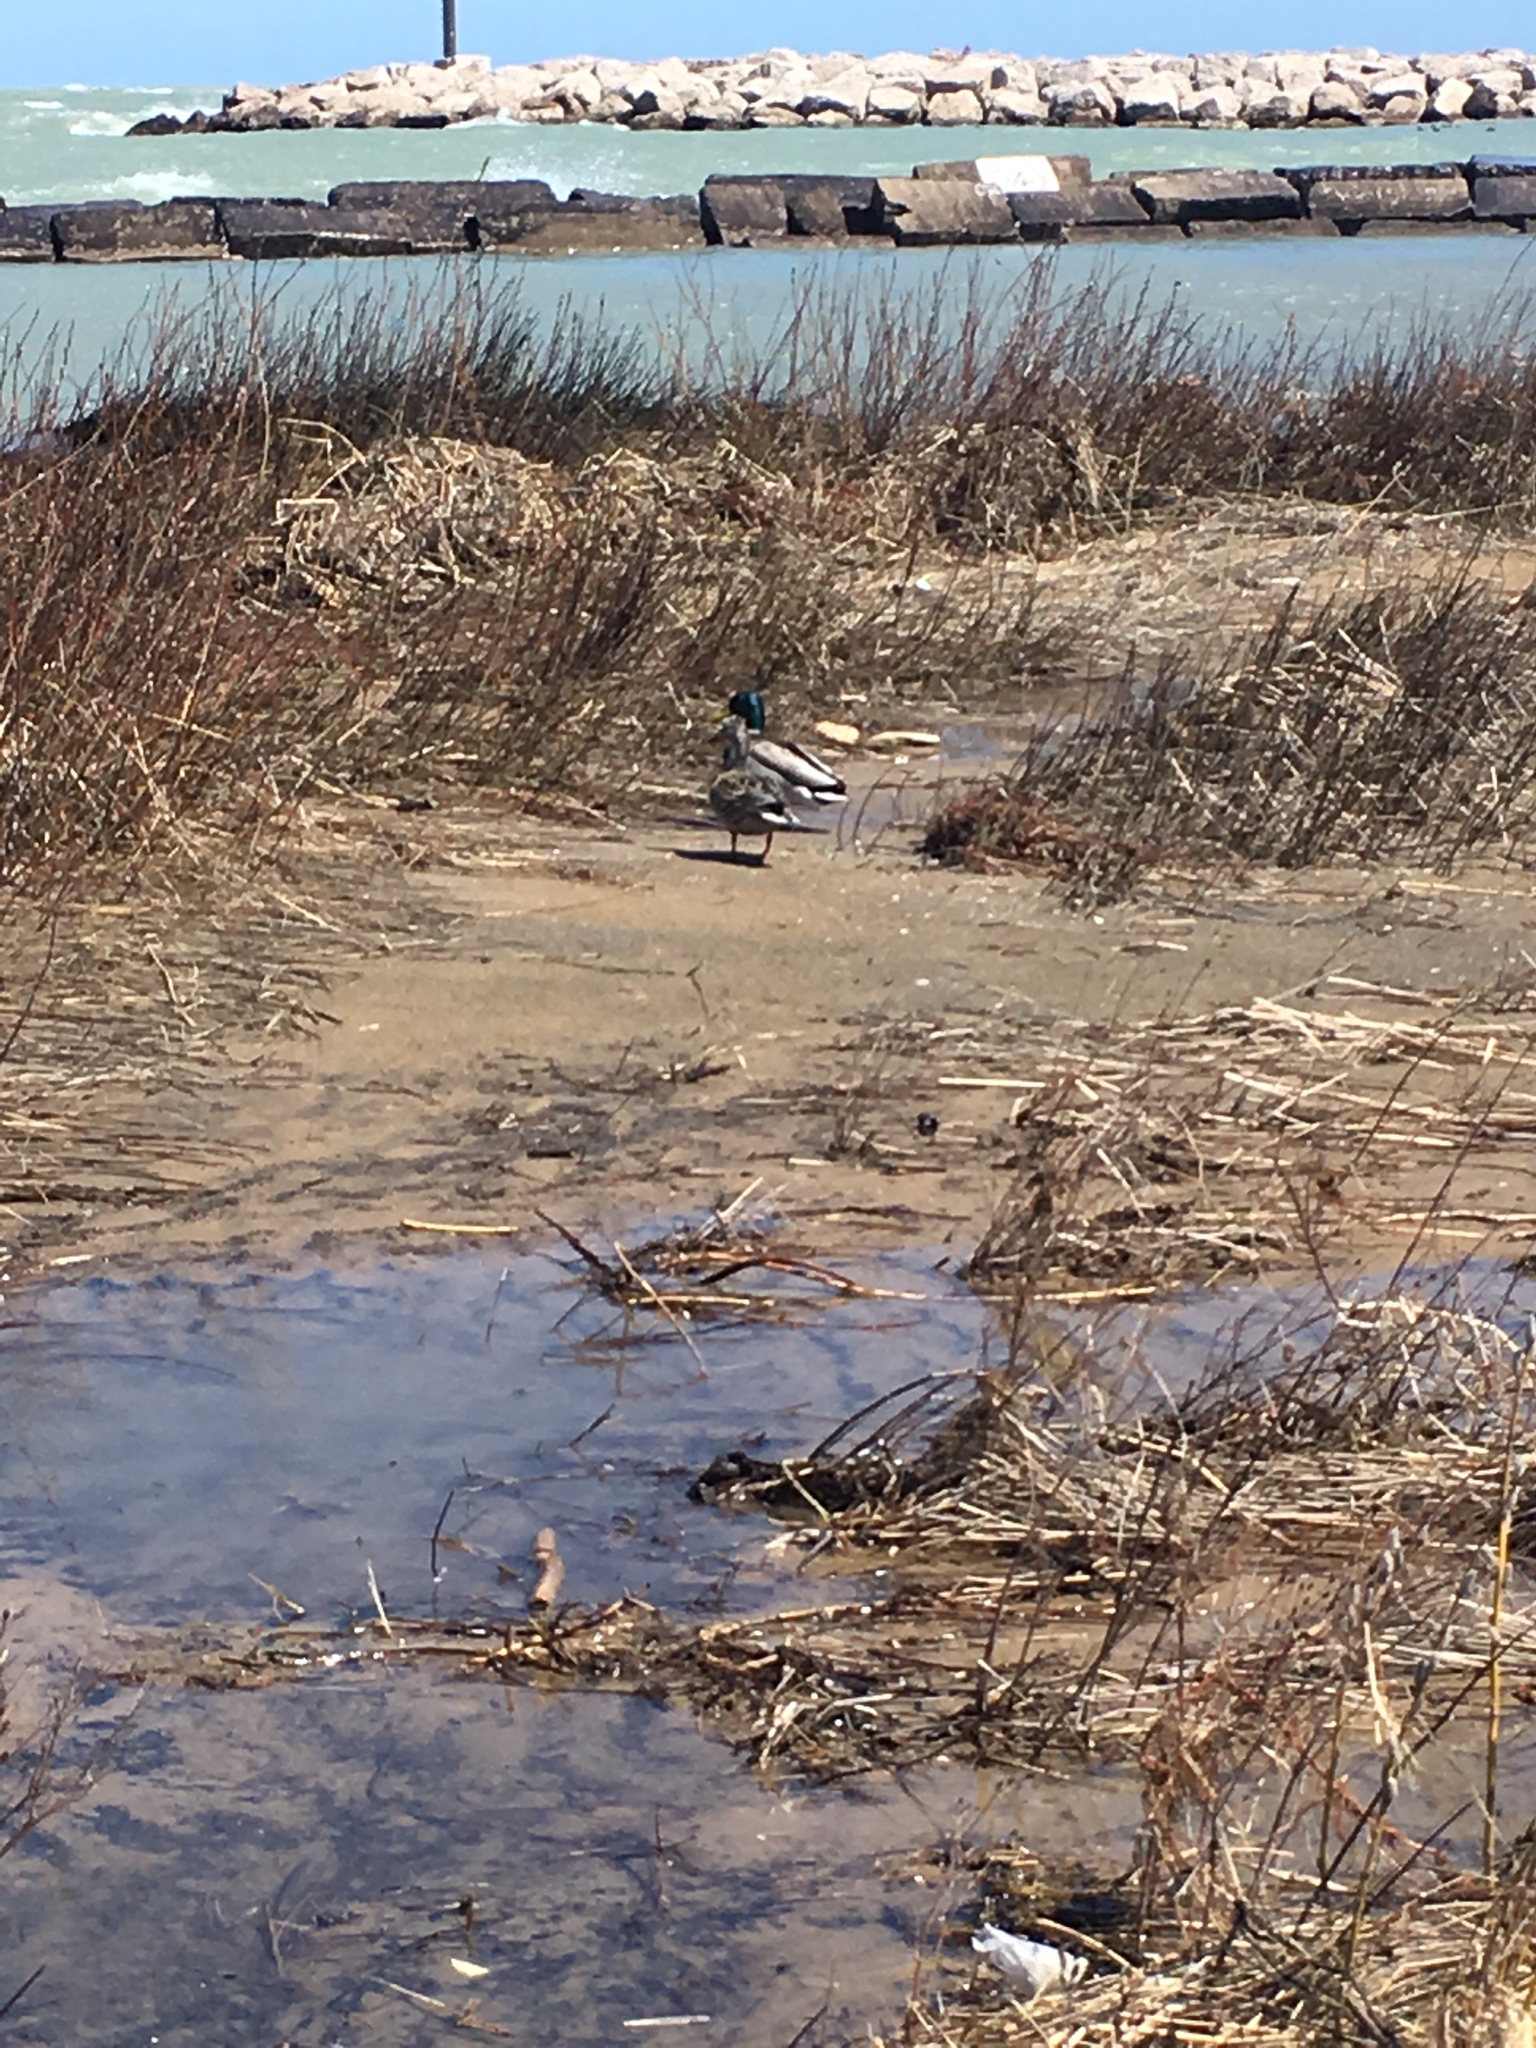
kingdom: Animalia
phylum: Chordata
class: Aves
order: Anseriformes
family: Anatidae
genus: Anas
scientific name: Anas platyrhynchos
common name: Mallard
